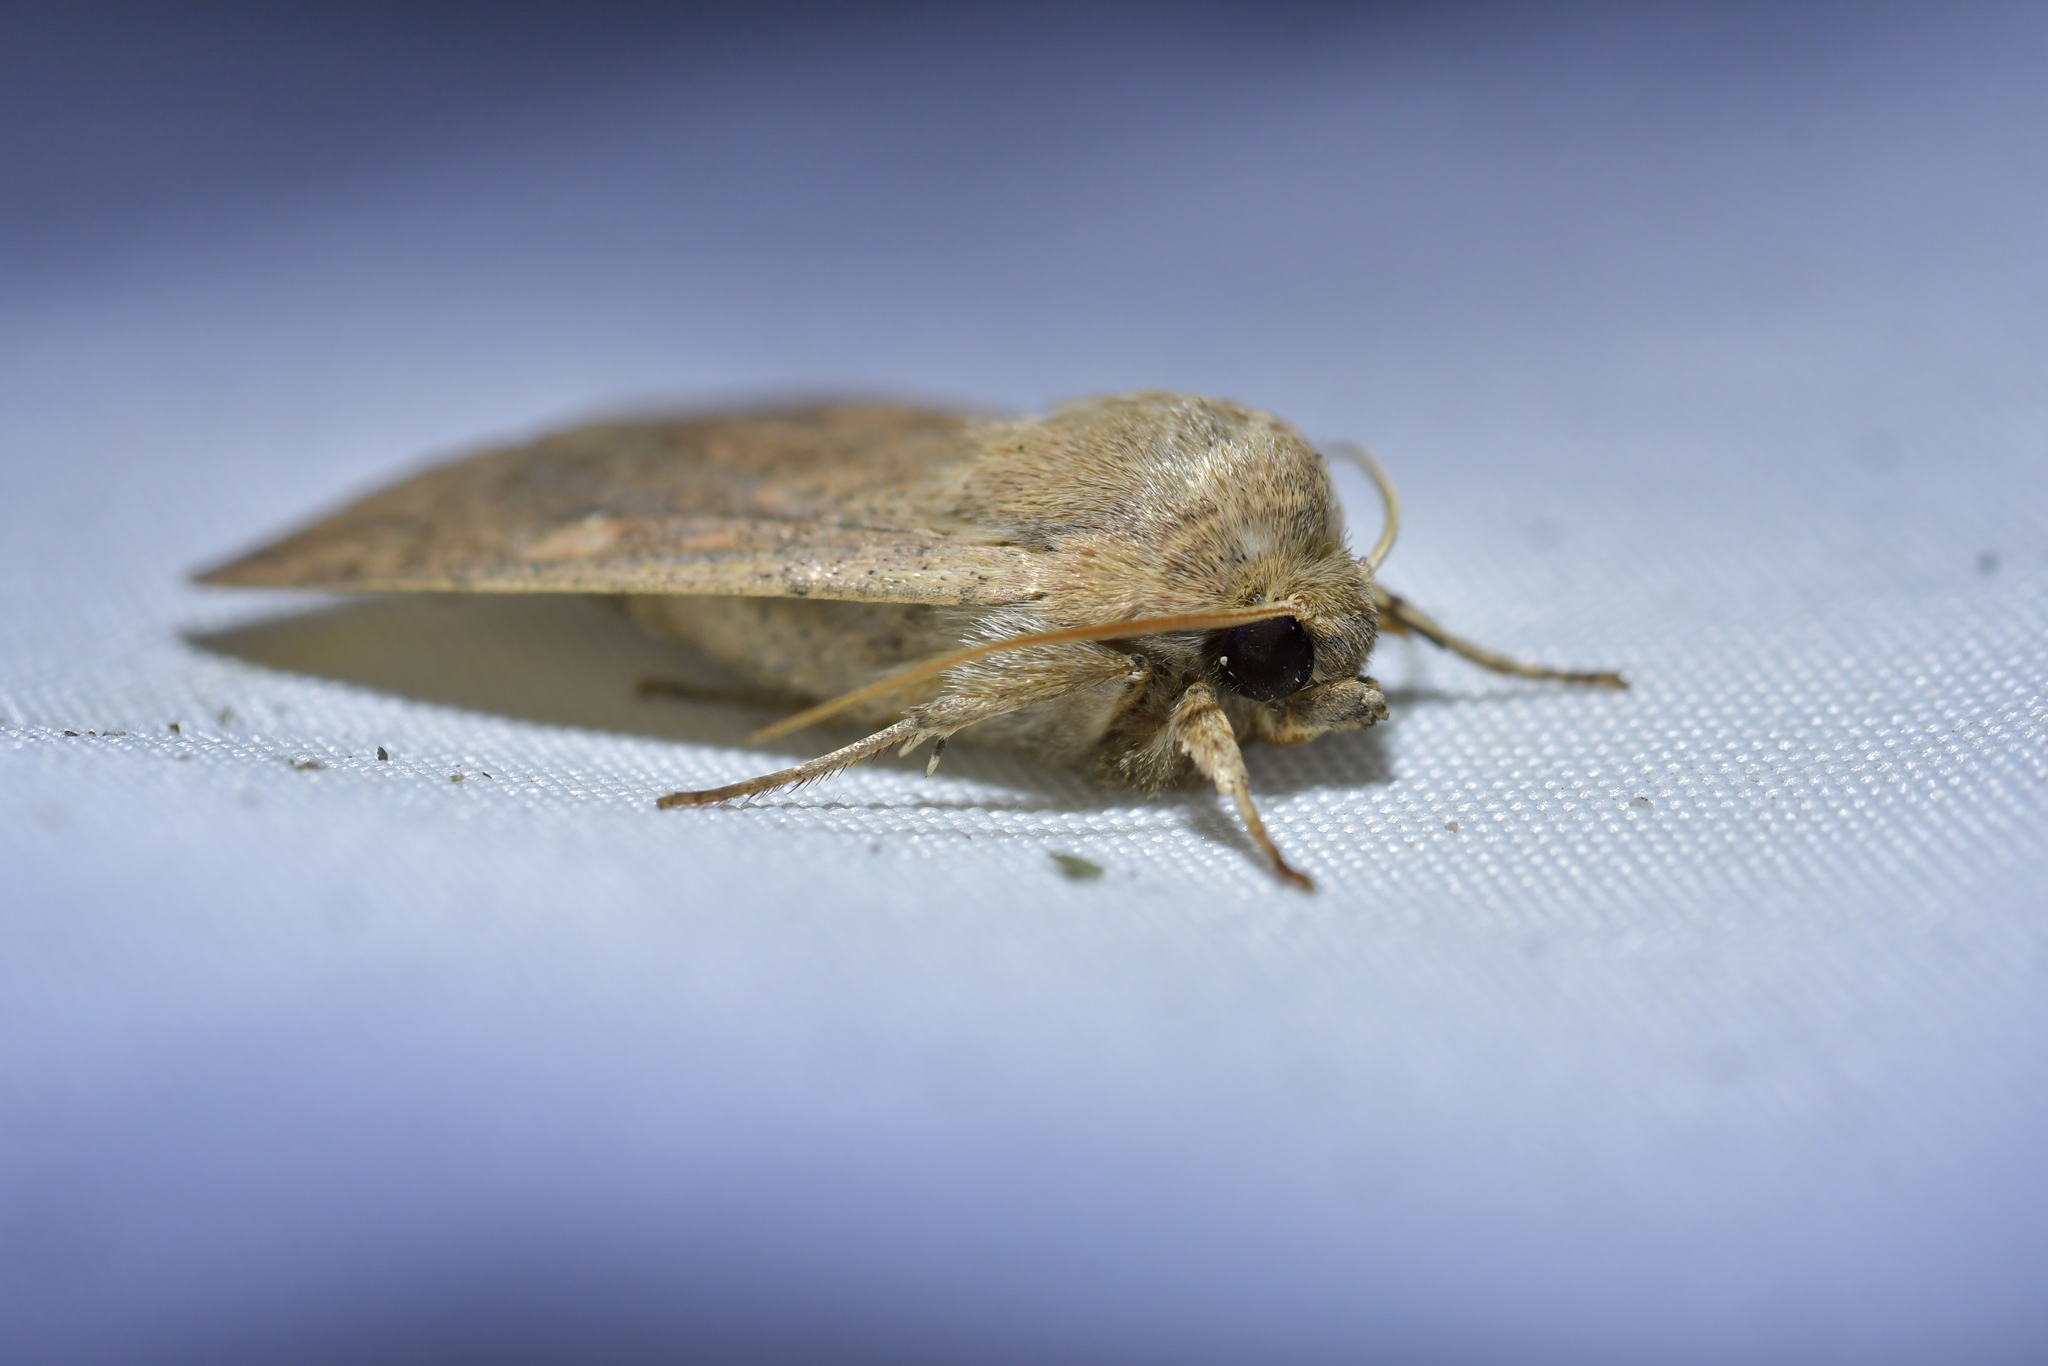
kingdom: Animalia
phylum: Arthropoda
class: Insecta
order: Lepidoptera
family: Noctuidae
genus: Mythimna
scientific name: Mythimna separata
